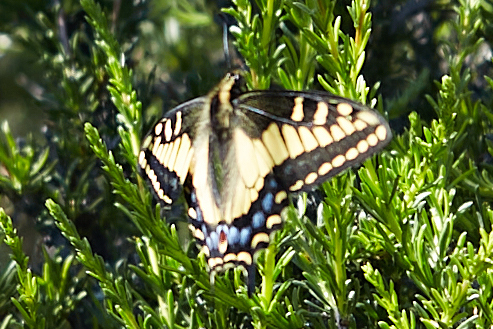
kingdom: Animalia
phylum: Arthropoda
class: Insecta
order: Lepidoptera
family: Papilionidae
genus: Papilio
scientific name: Papilio zelicaon
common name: Anise swallowtail
